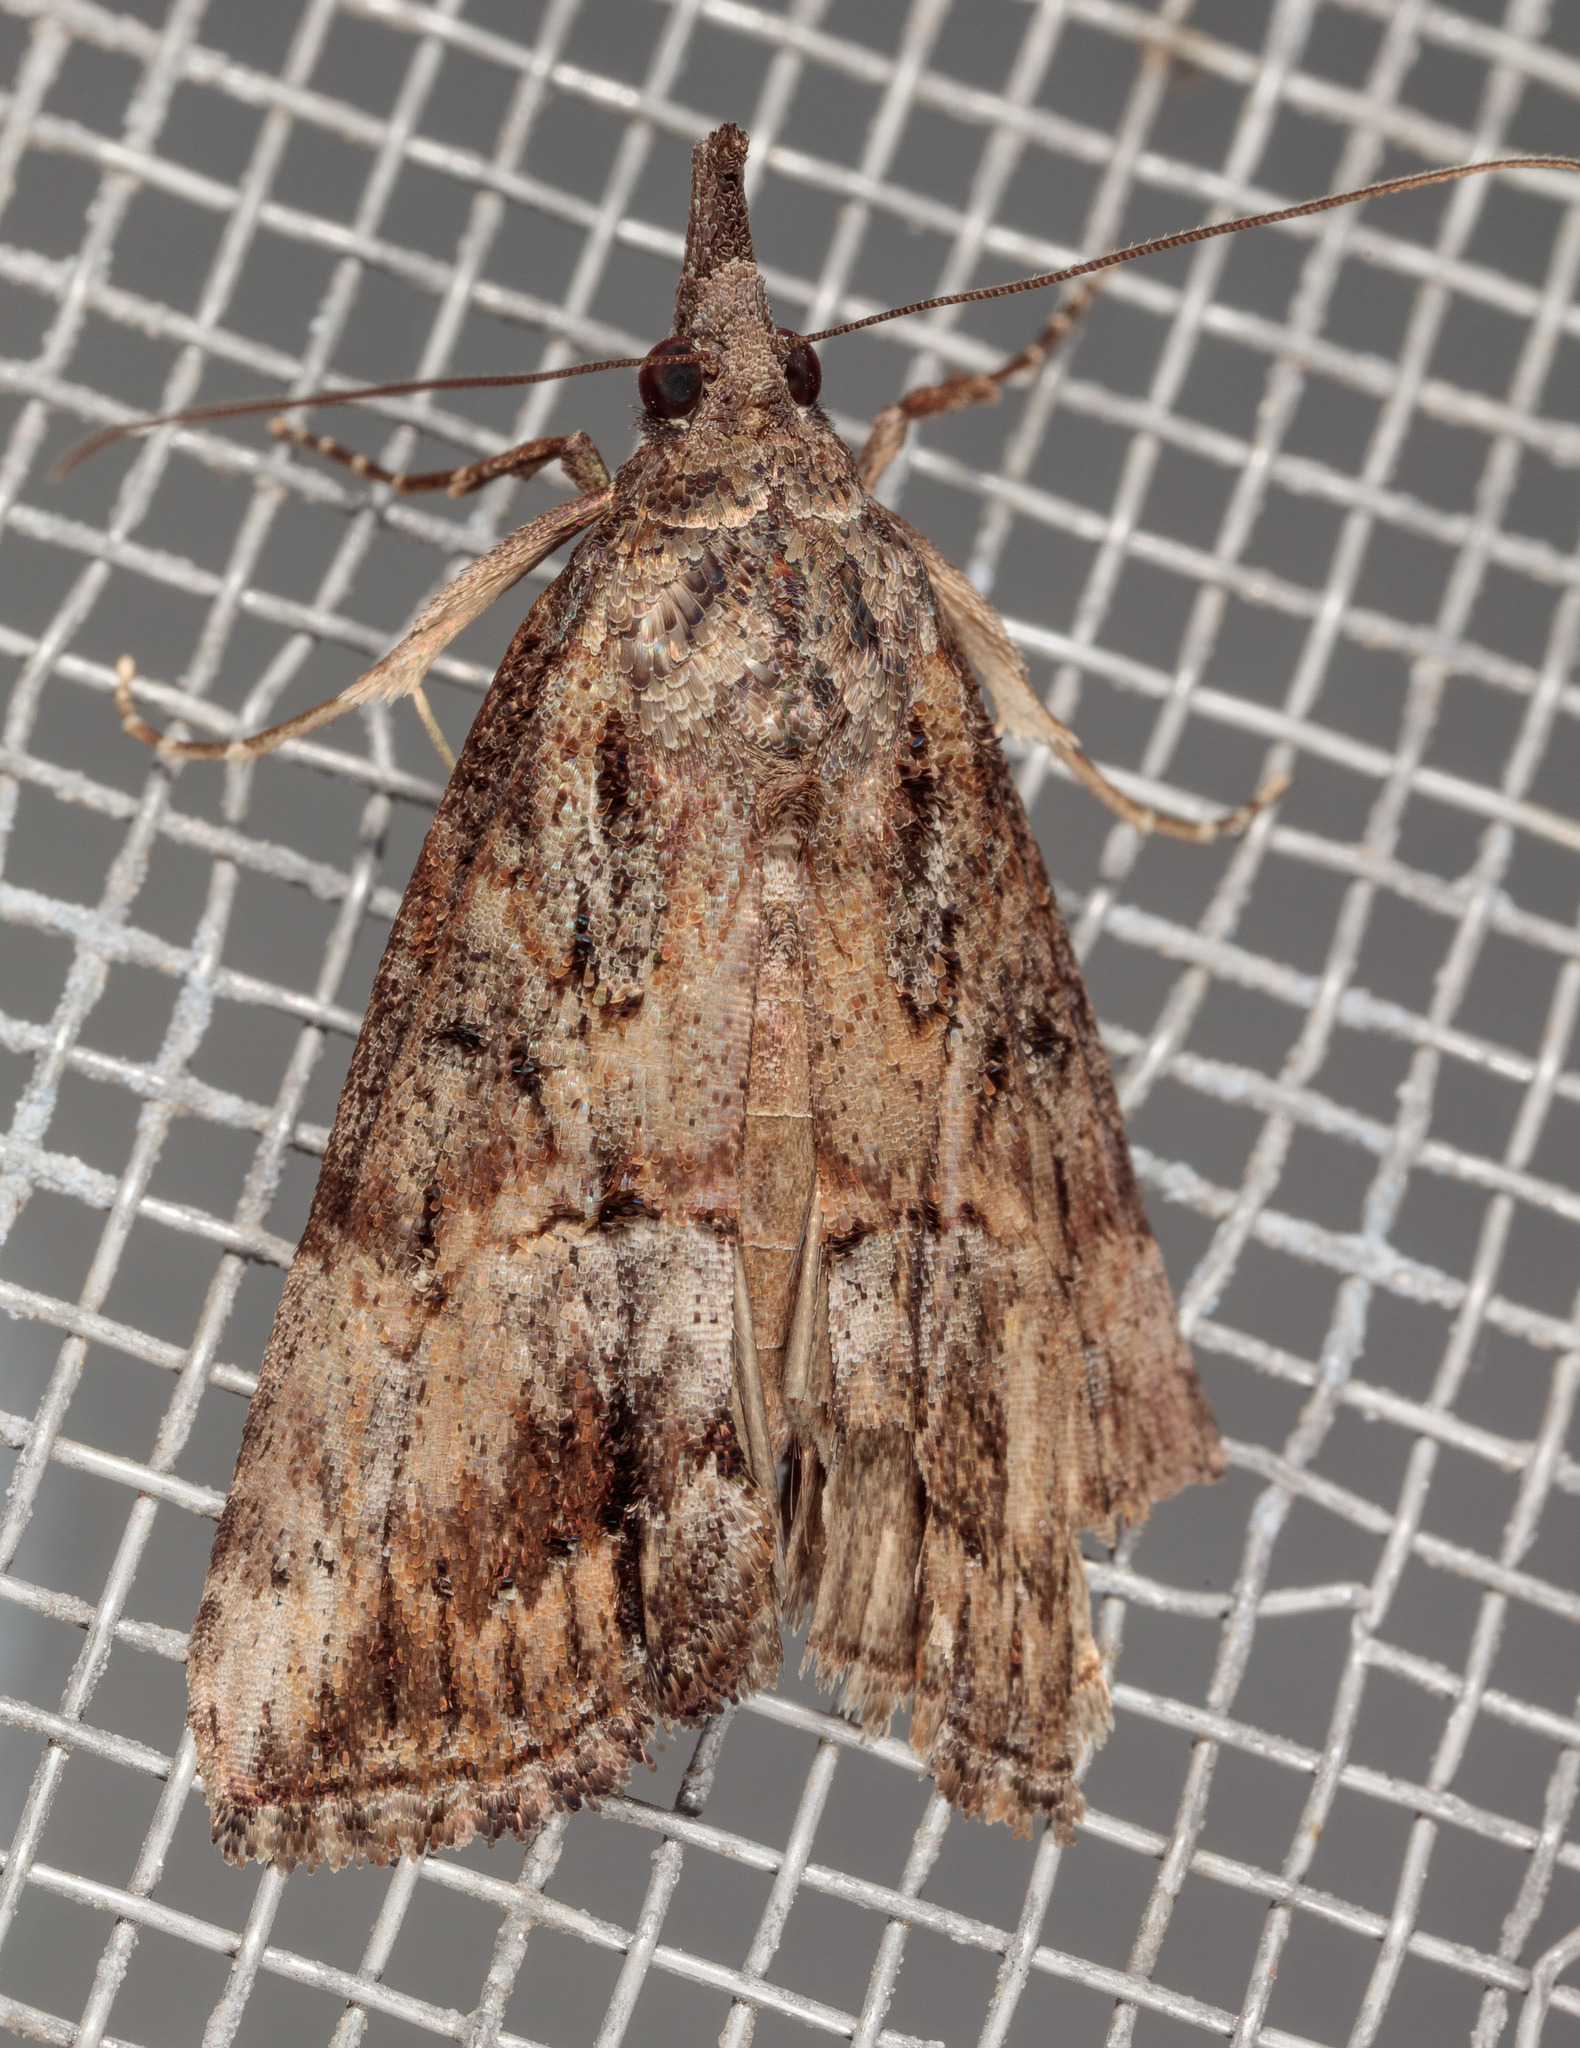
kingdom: Animalia
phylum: Arthropoda
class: Insecta
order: Lepidoptera
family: Erebidae
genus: Hypena
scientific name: Hypena scabra
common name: Green cloverworm
